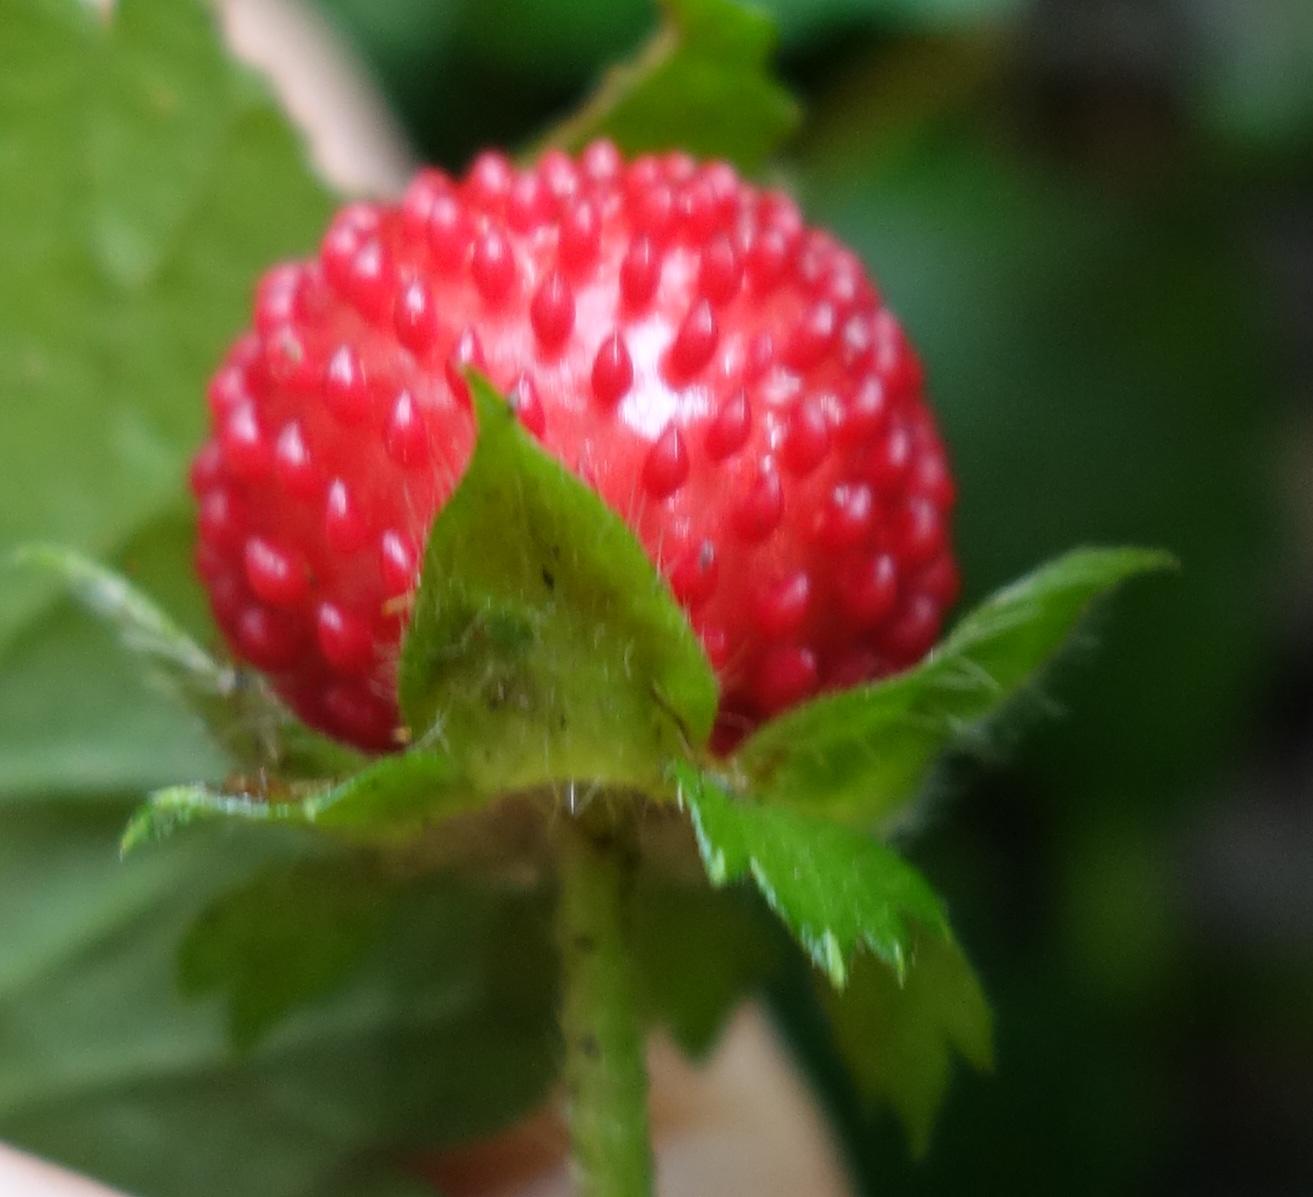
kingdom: Plantae
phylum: Tracheophyta
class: Magnoliopsida
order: Rosales
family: Rosaceae
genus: Potentilla
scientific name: Potentilla indica
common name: Yellow-flowered strawberry
